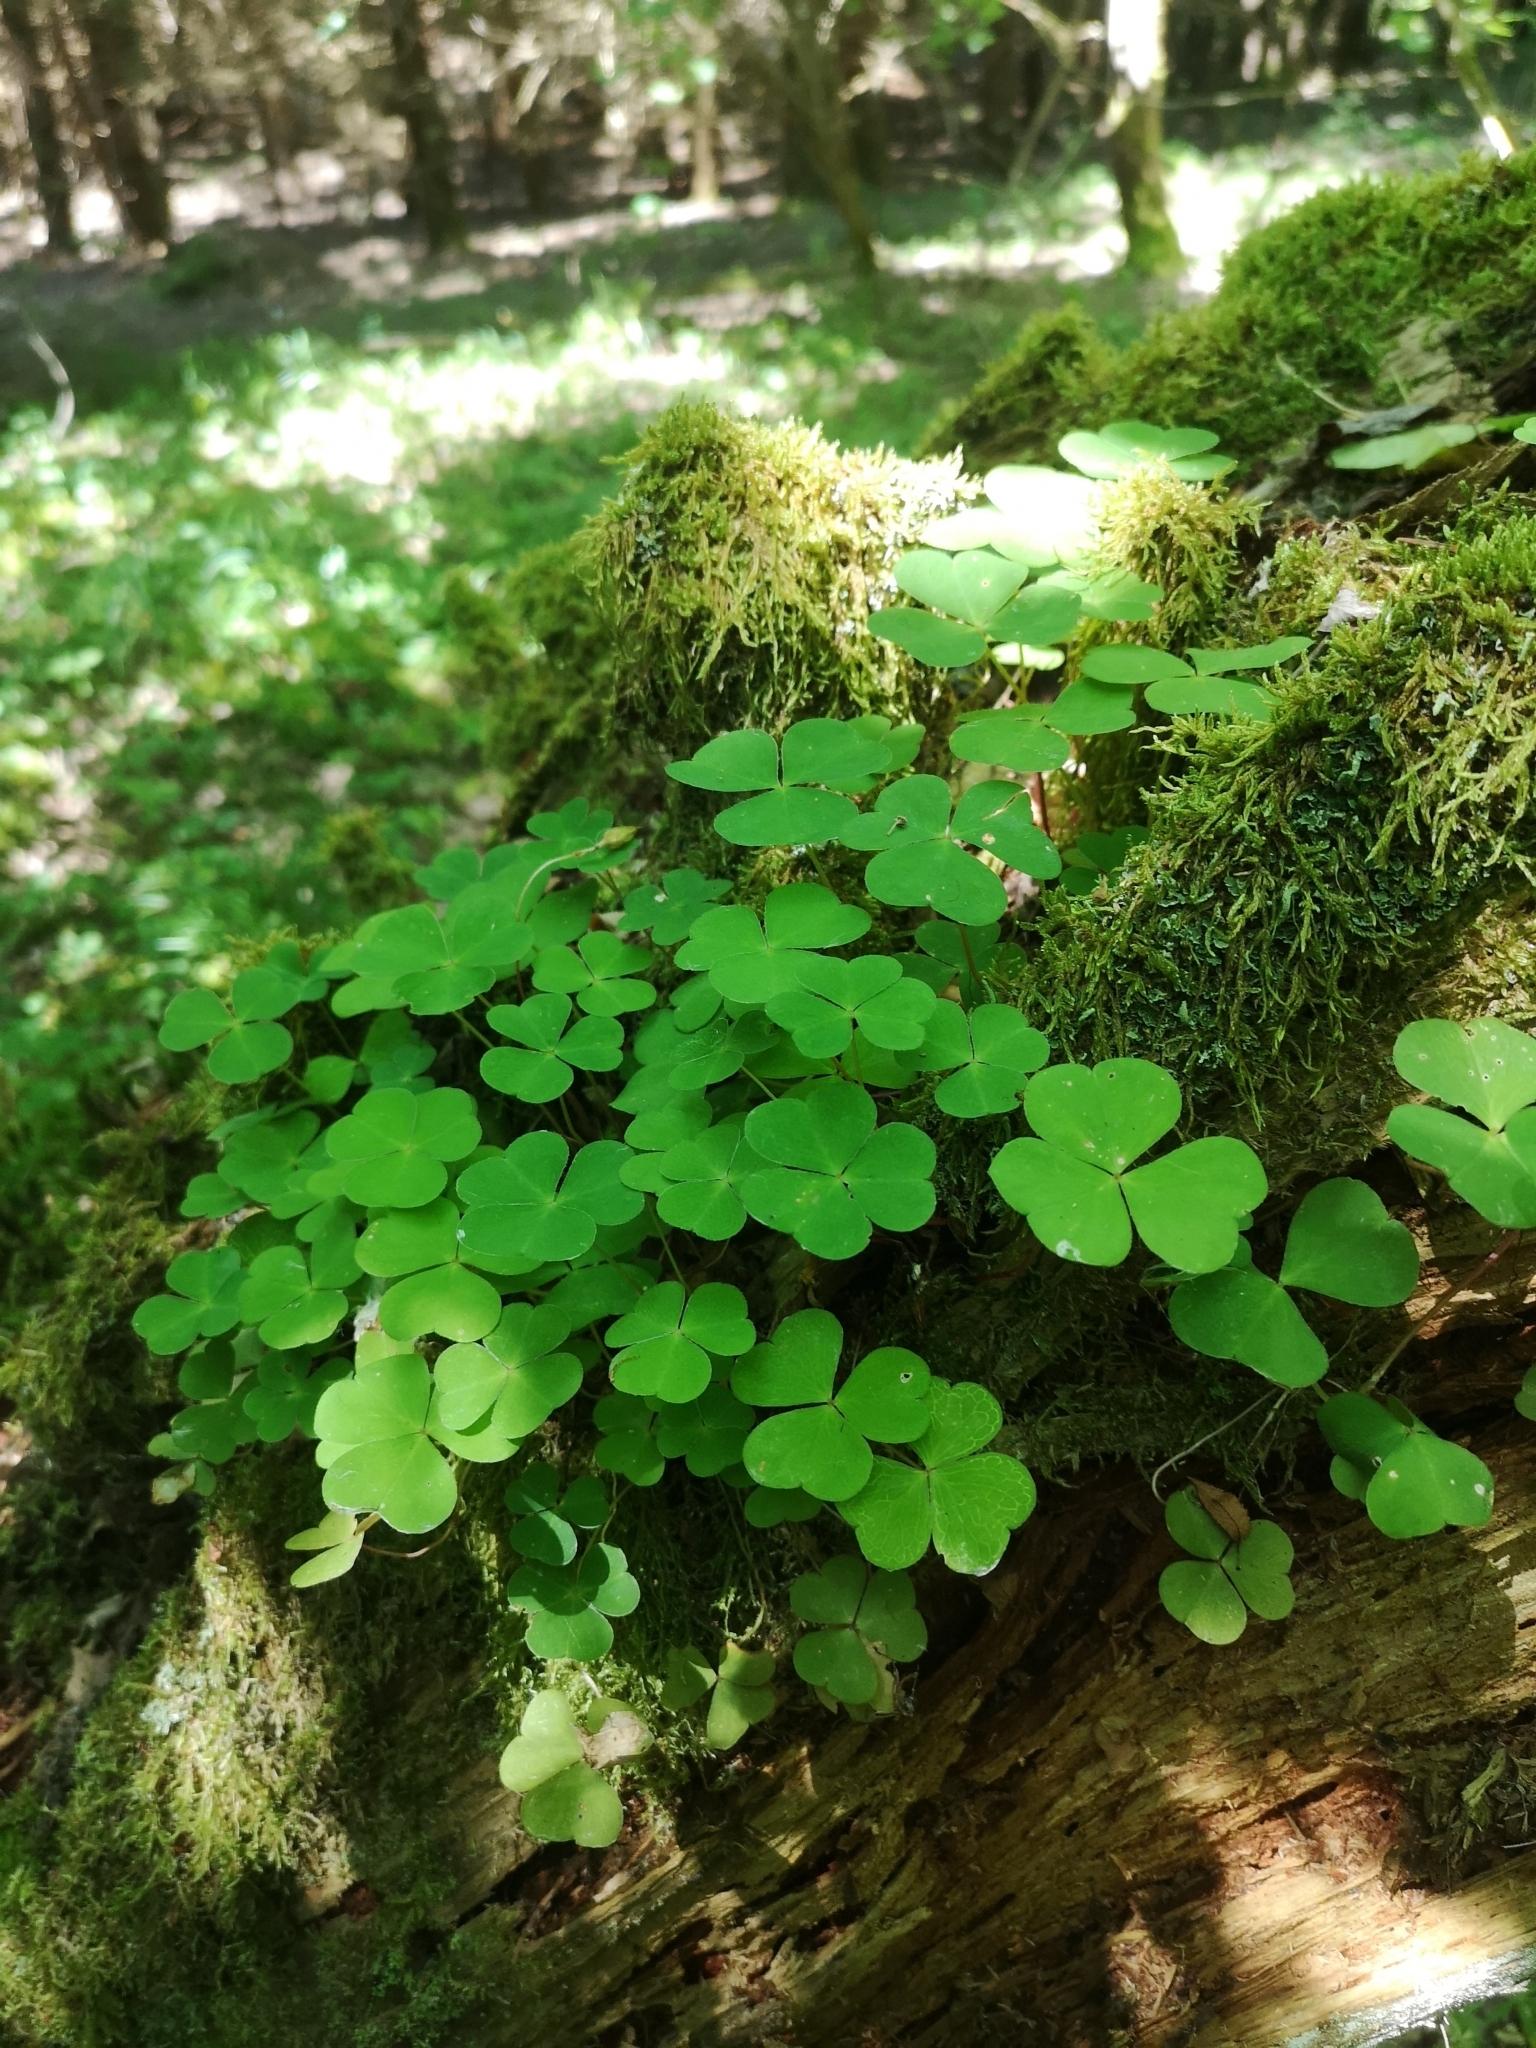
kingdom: Plantae
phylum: Tracheophyta
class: Magnoliopsida
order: Oxalidales
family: Oxalidaceae
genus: Oxalis
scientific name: Oxalis acetosella
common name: Wood-sorrel
